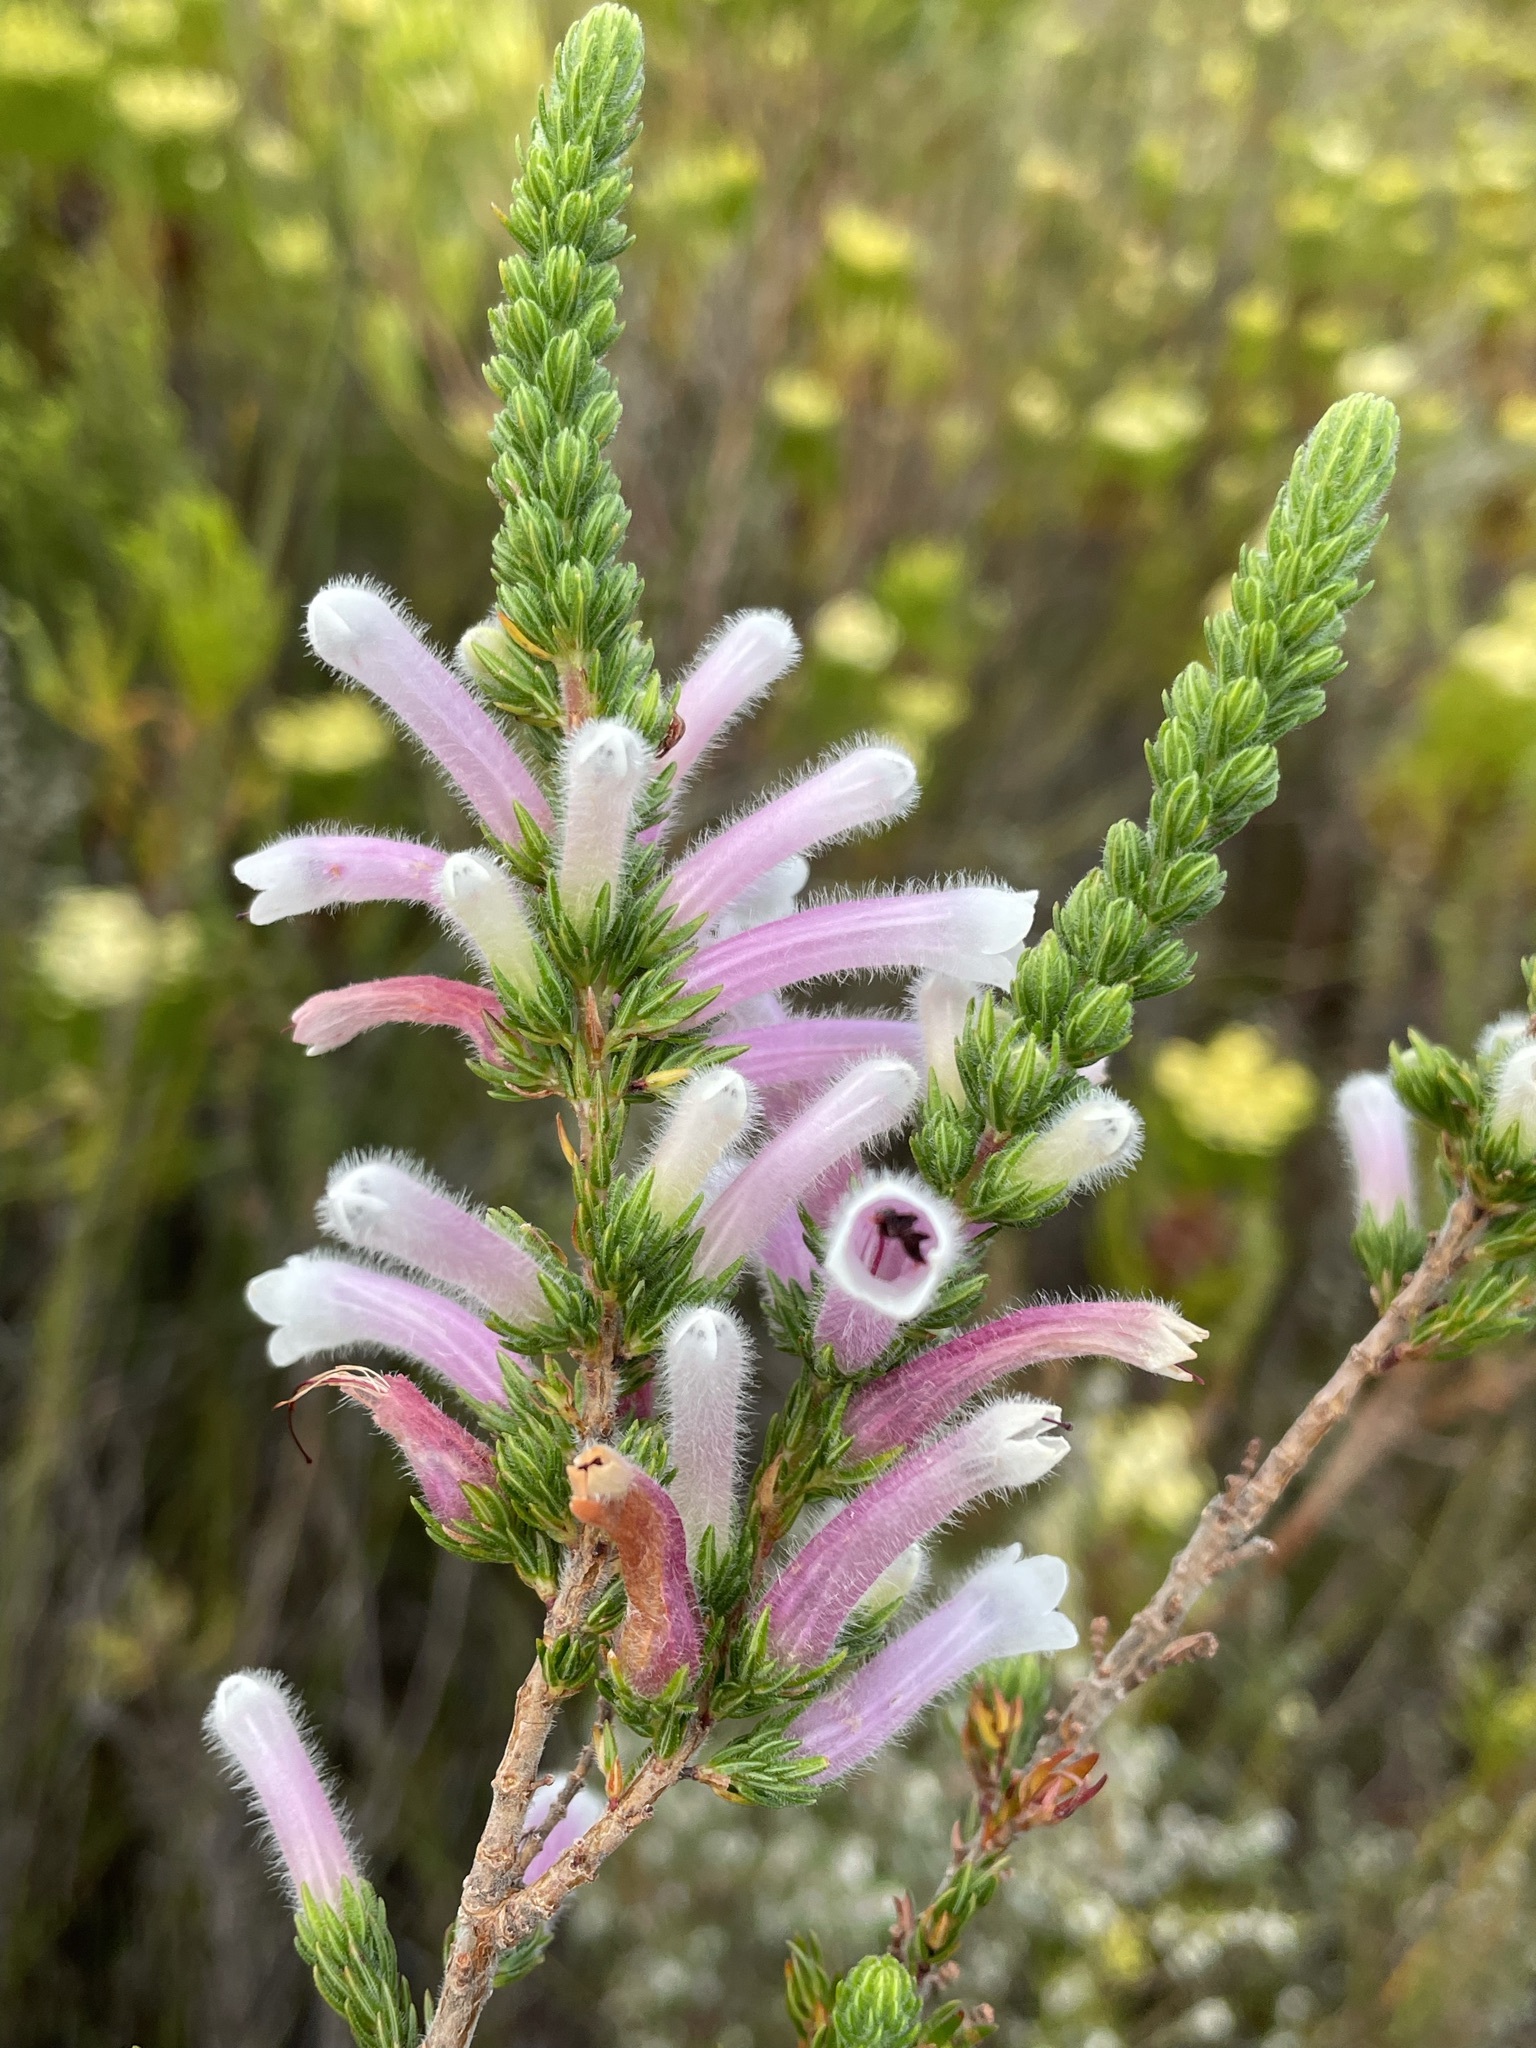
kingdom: Plantae
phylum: Tracheophyta
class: Magnoliopsida
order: Ericales
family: Ericaceae
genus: Erica
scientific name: Erica macowanii
